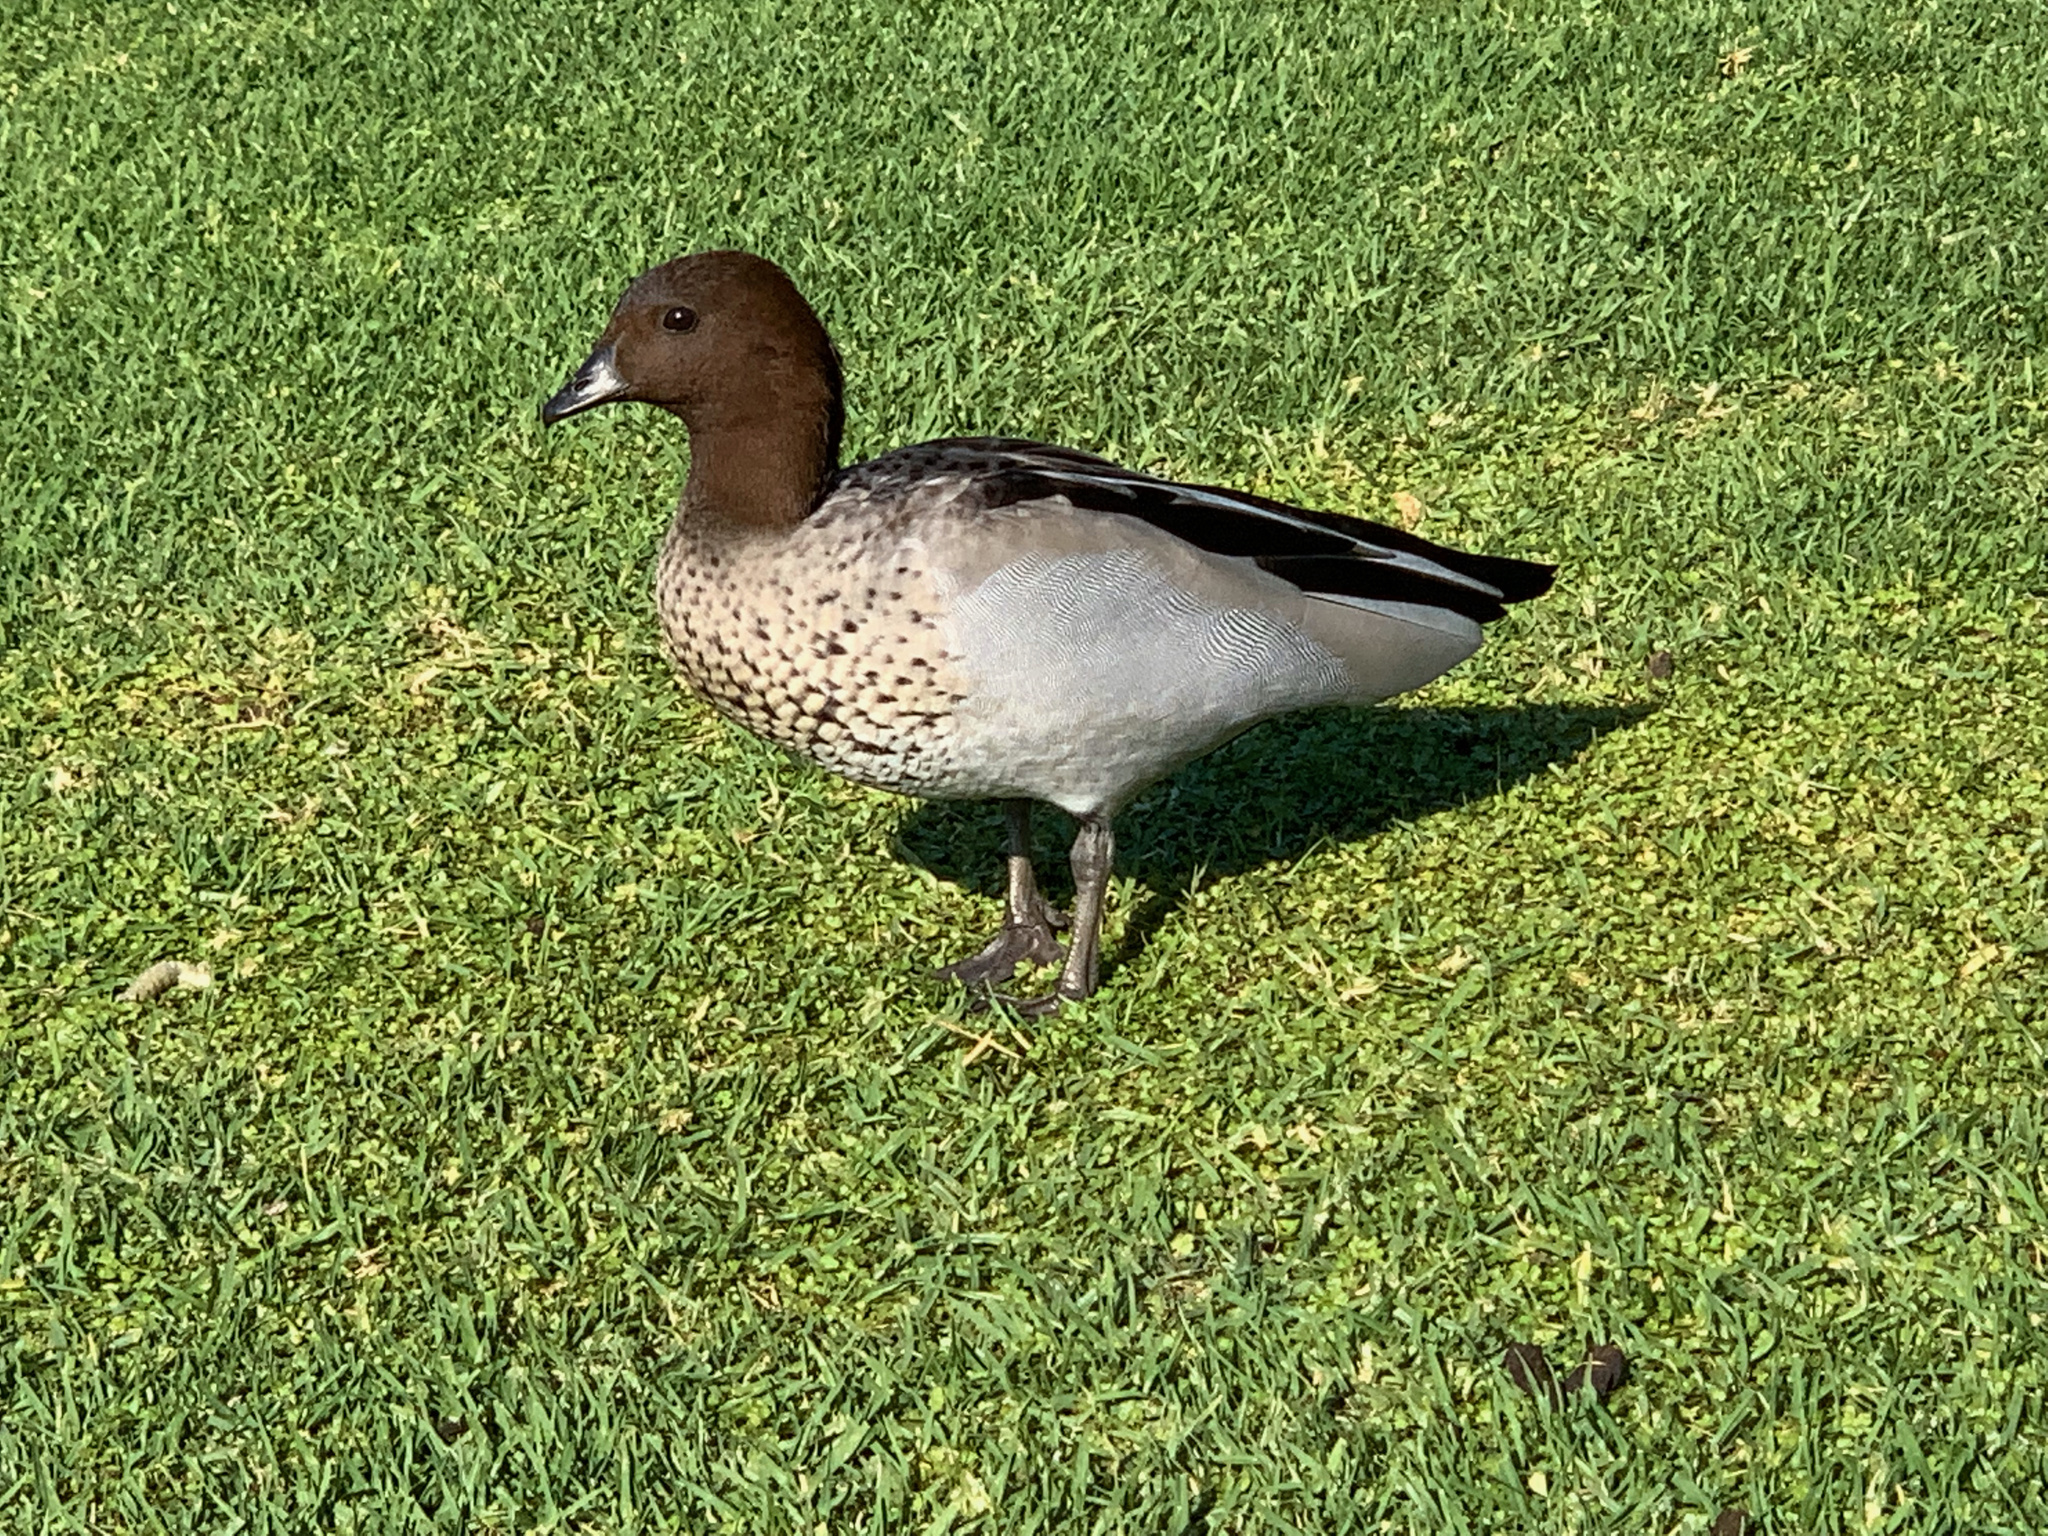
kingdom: Animalia
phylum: Chordata
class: Aves
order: Anseriformes
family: Anatidae
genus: Chenonetta
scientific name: Chenonetta jubata
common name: Maned duck
